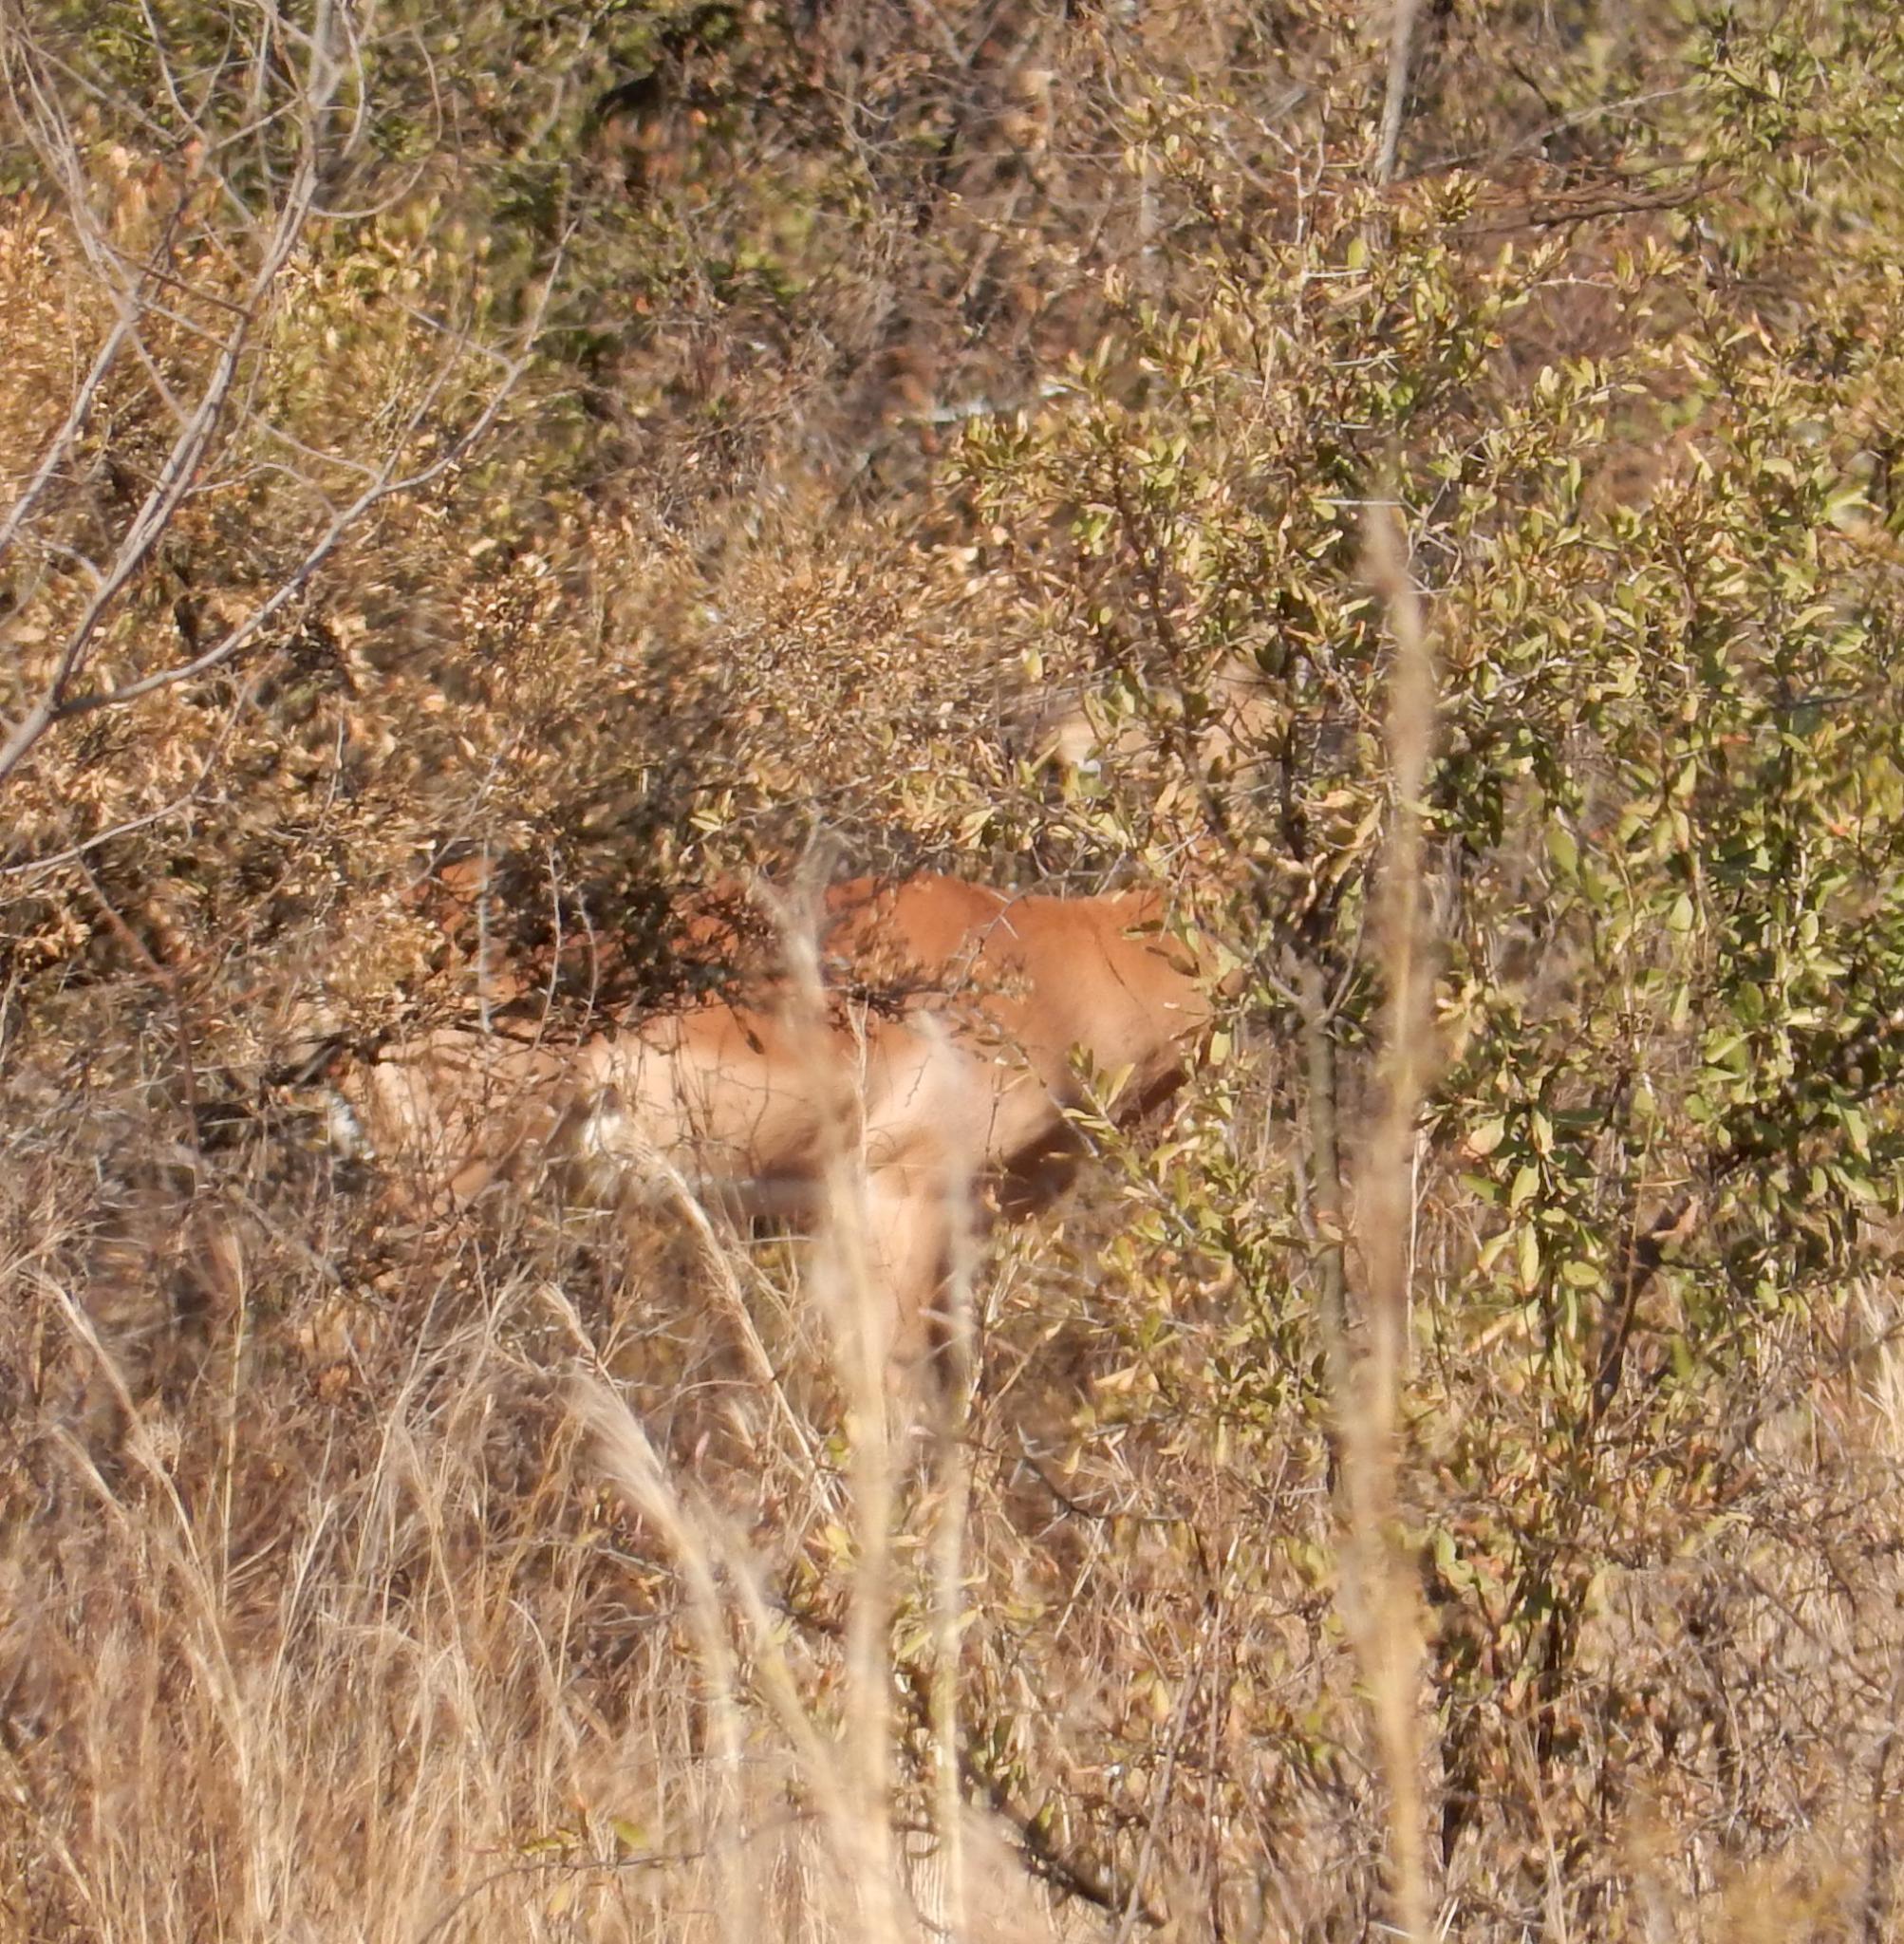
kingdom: Animalia
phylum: Chordata
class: Mammalia
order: Artiodactyla
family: Bovidae
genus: Aepyceros
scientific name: Aepyceros melampus
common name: Impala
